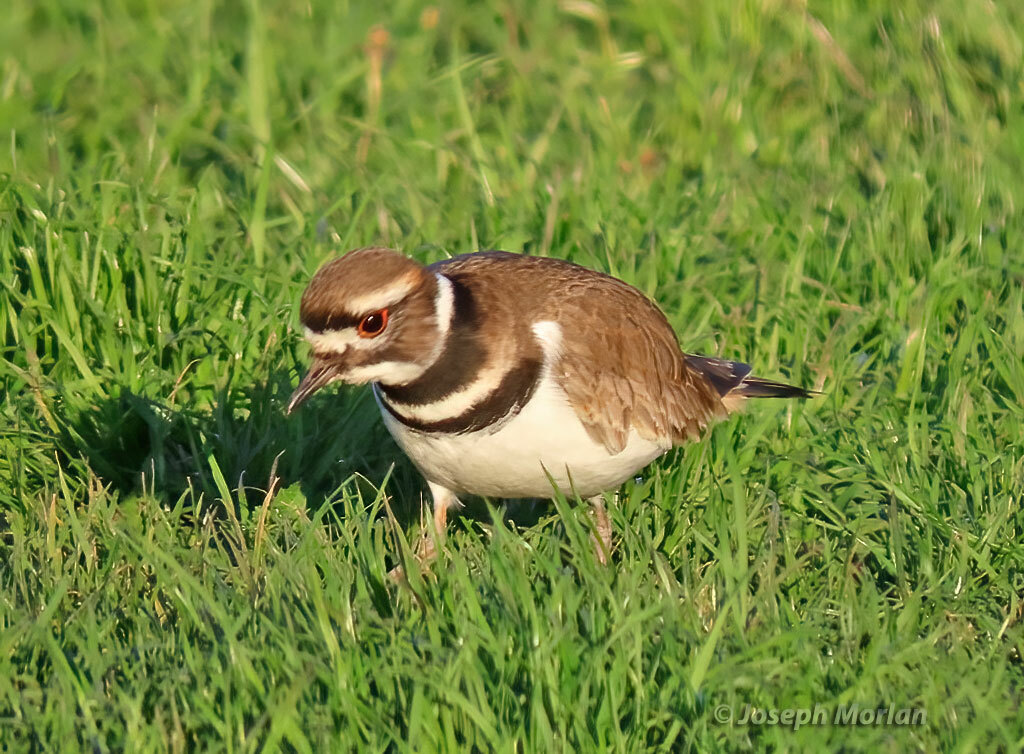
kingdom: Animalia
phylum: Chordata
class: Aves
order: Charadriiformes
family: Charadriidae
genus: Charadrius
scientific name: Charadrius vociferus
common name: Killdeer
